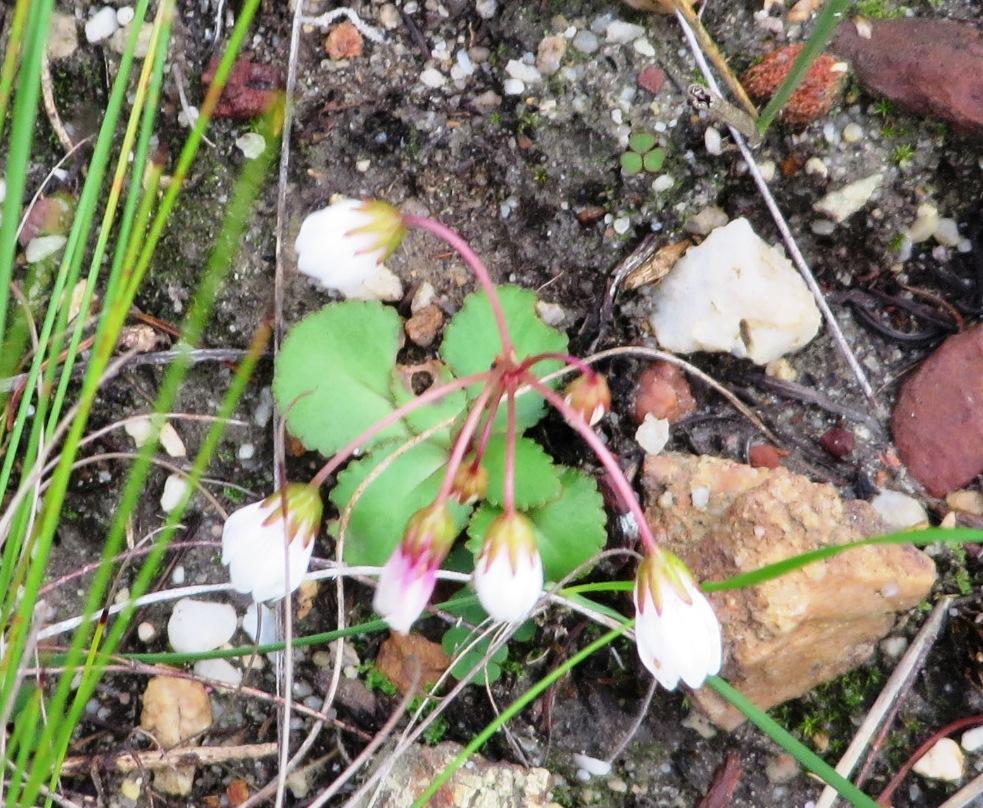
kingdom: Plantae
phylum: Tracheophyta
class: Magnoliopsida
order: Saxifragales
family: Crassulaceae
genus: Crassula
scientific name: Crassula capensis
